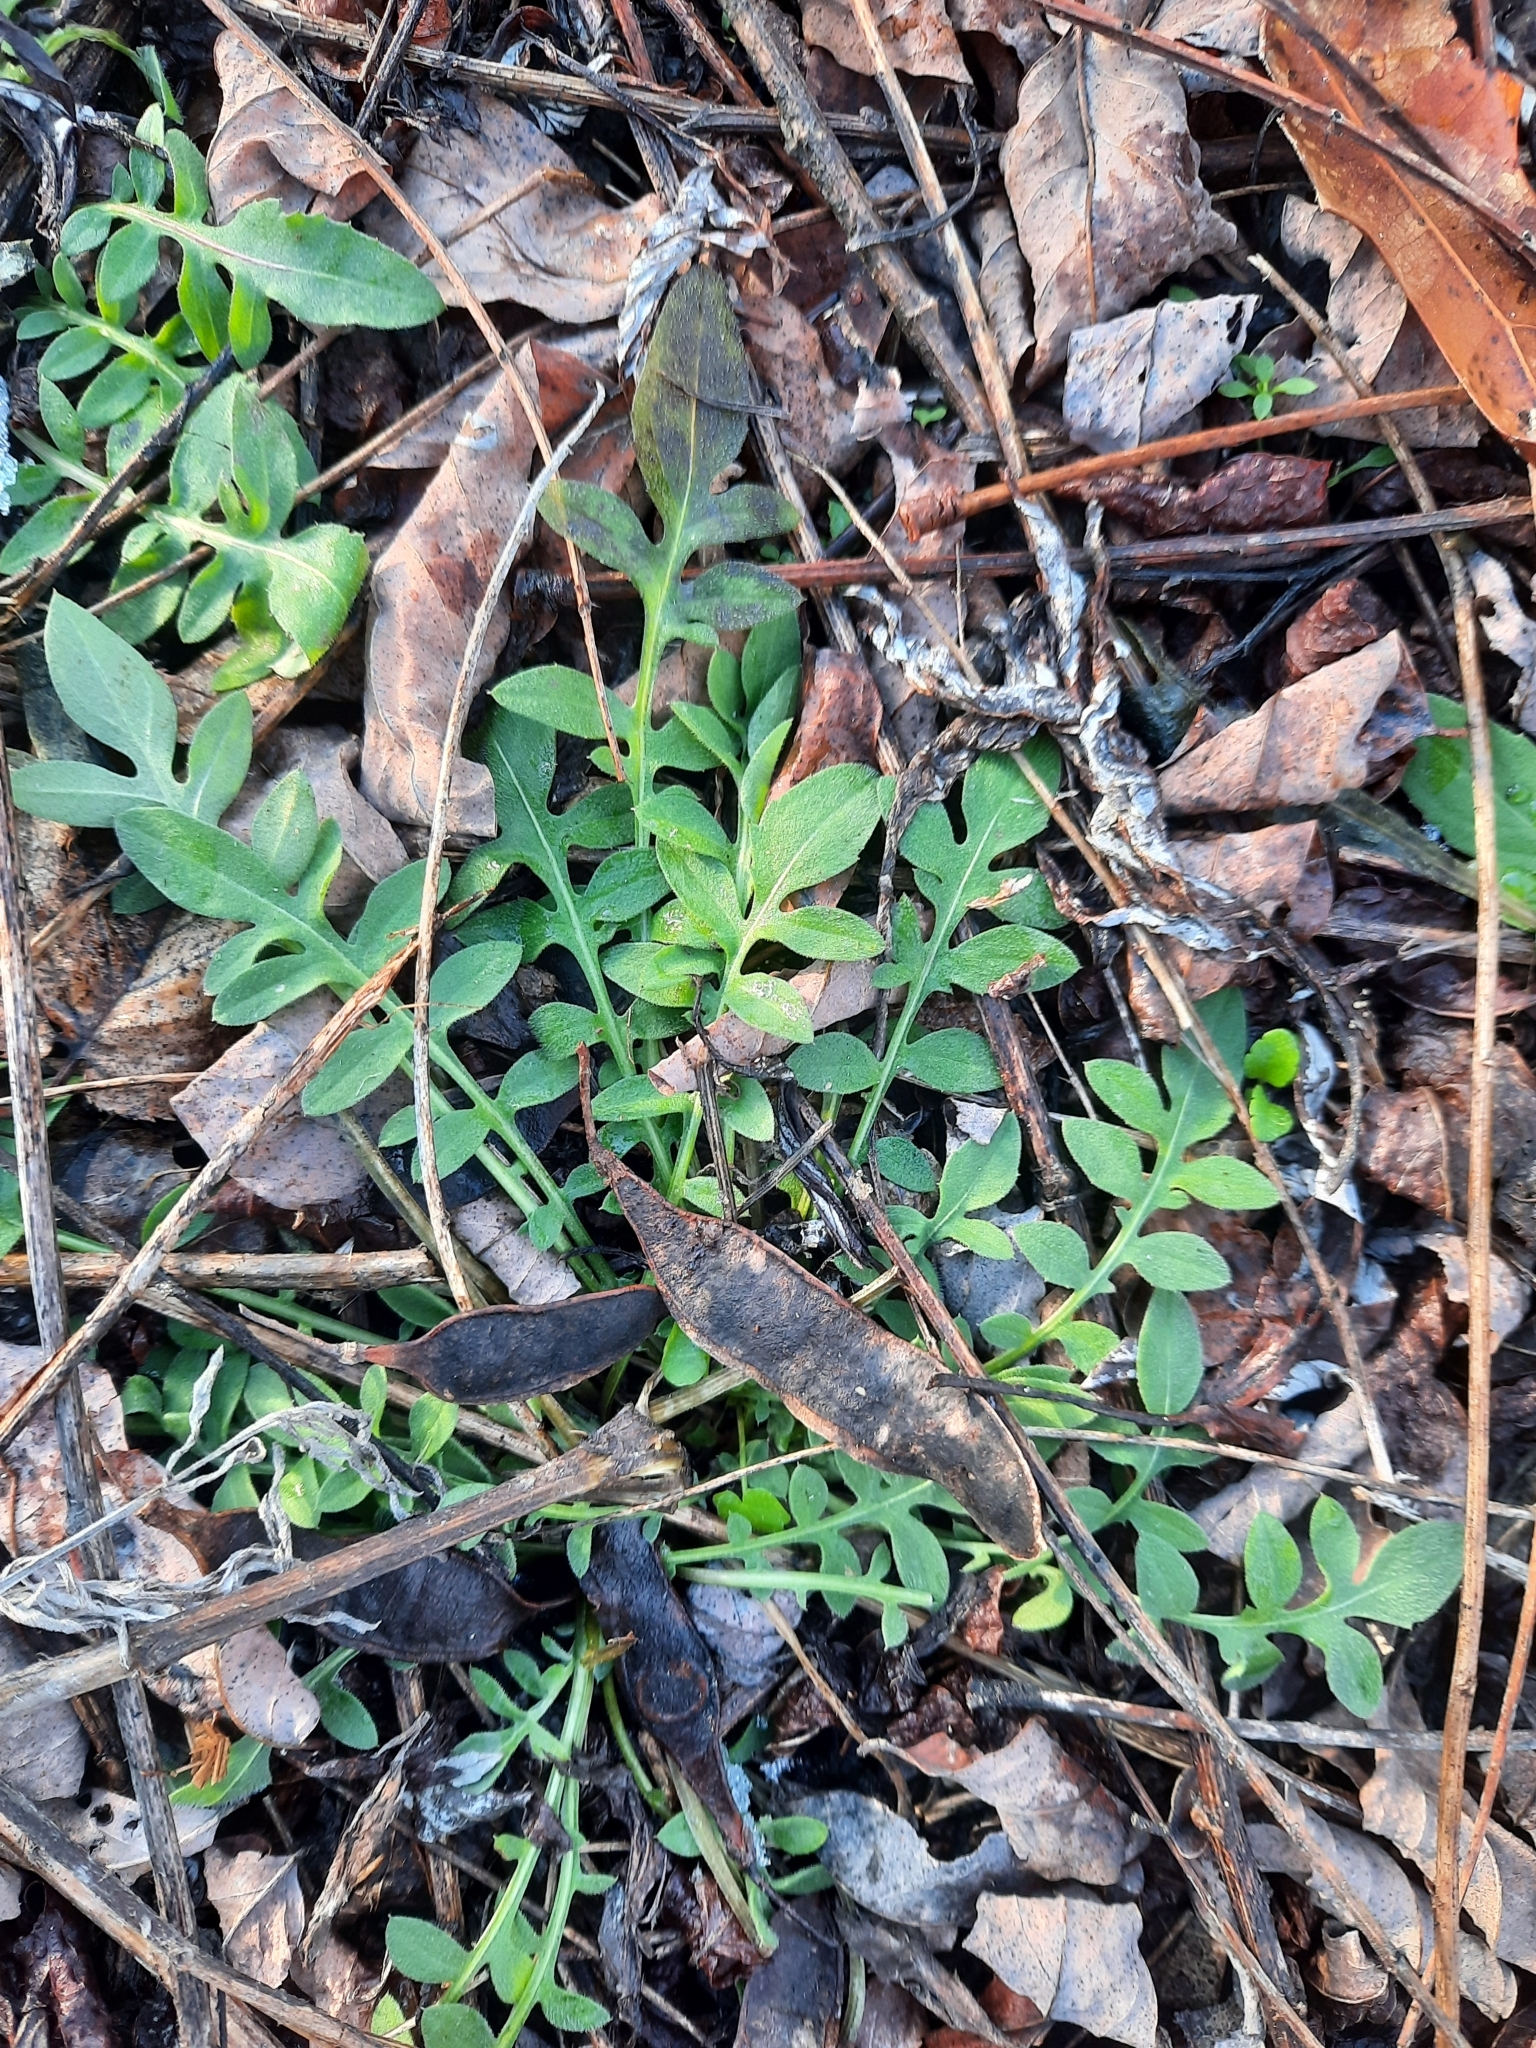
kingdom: Plantae
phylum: Tracheophyta
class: Magnoliopsida
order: Asterales
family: Asteraceae
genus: Centaurea
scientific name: Centaurea stoebe
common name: Spotted knapweed
